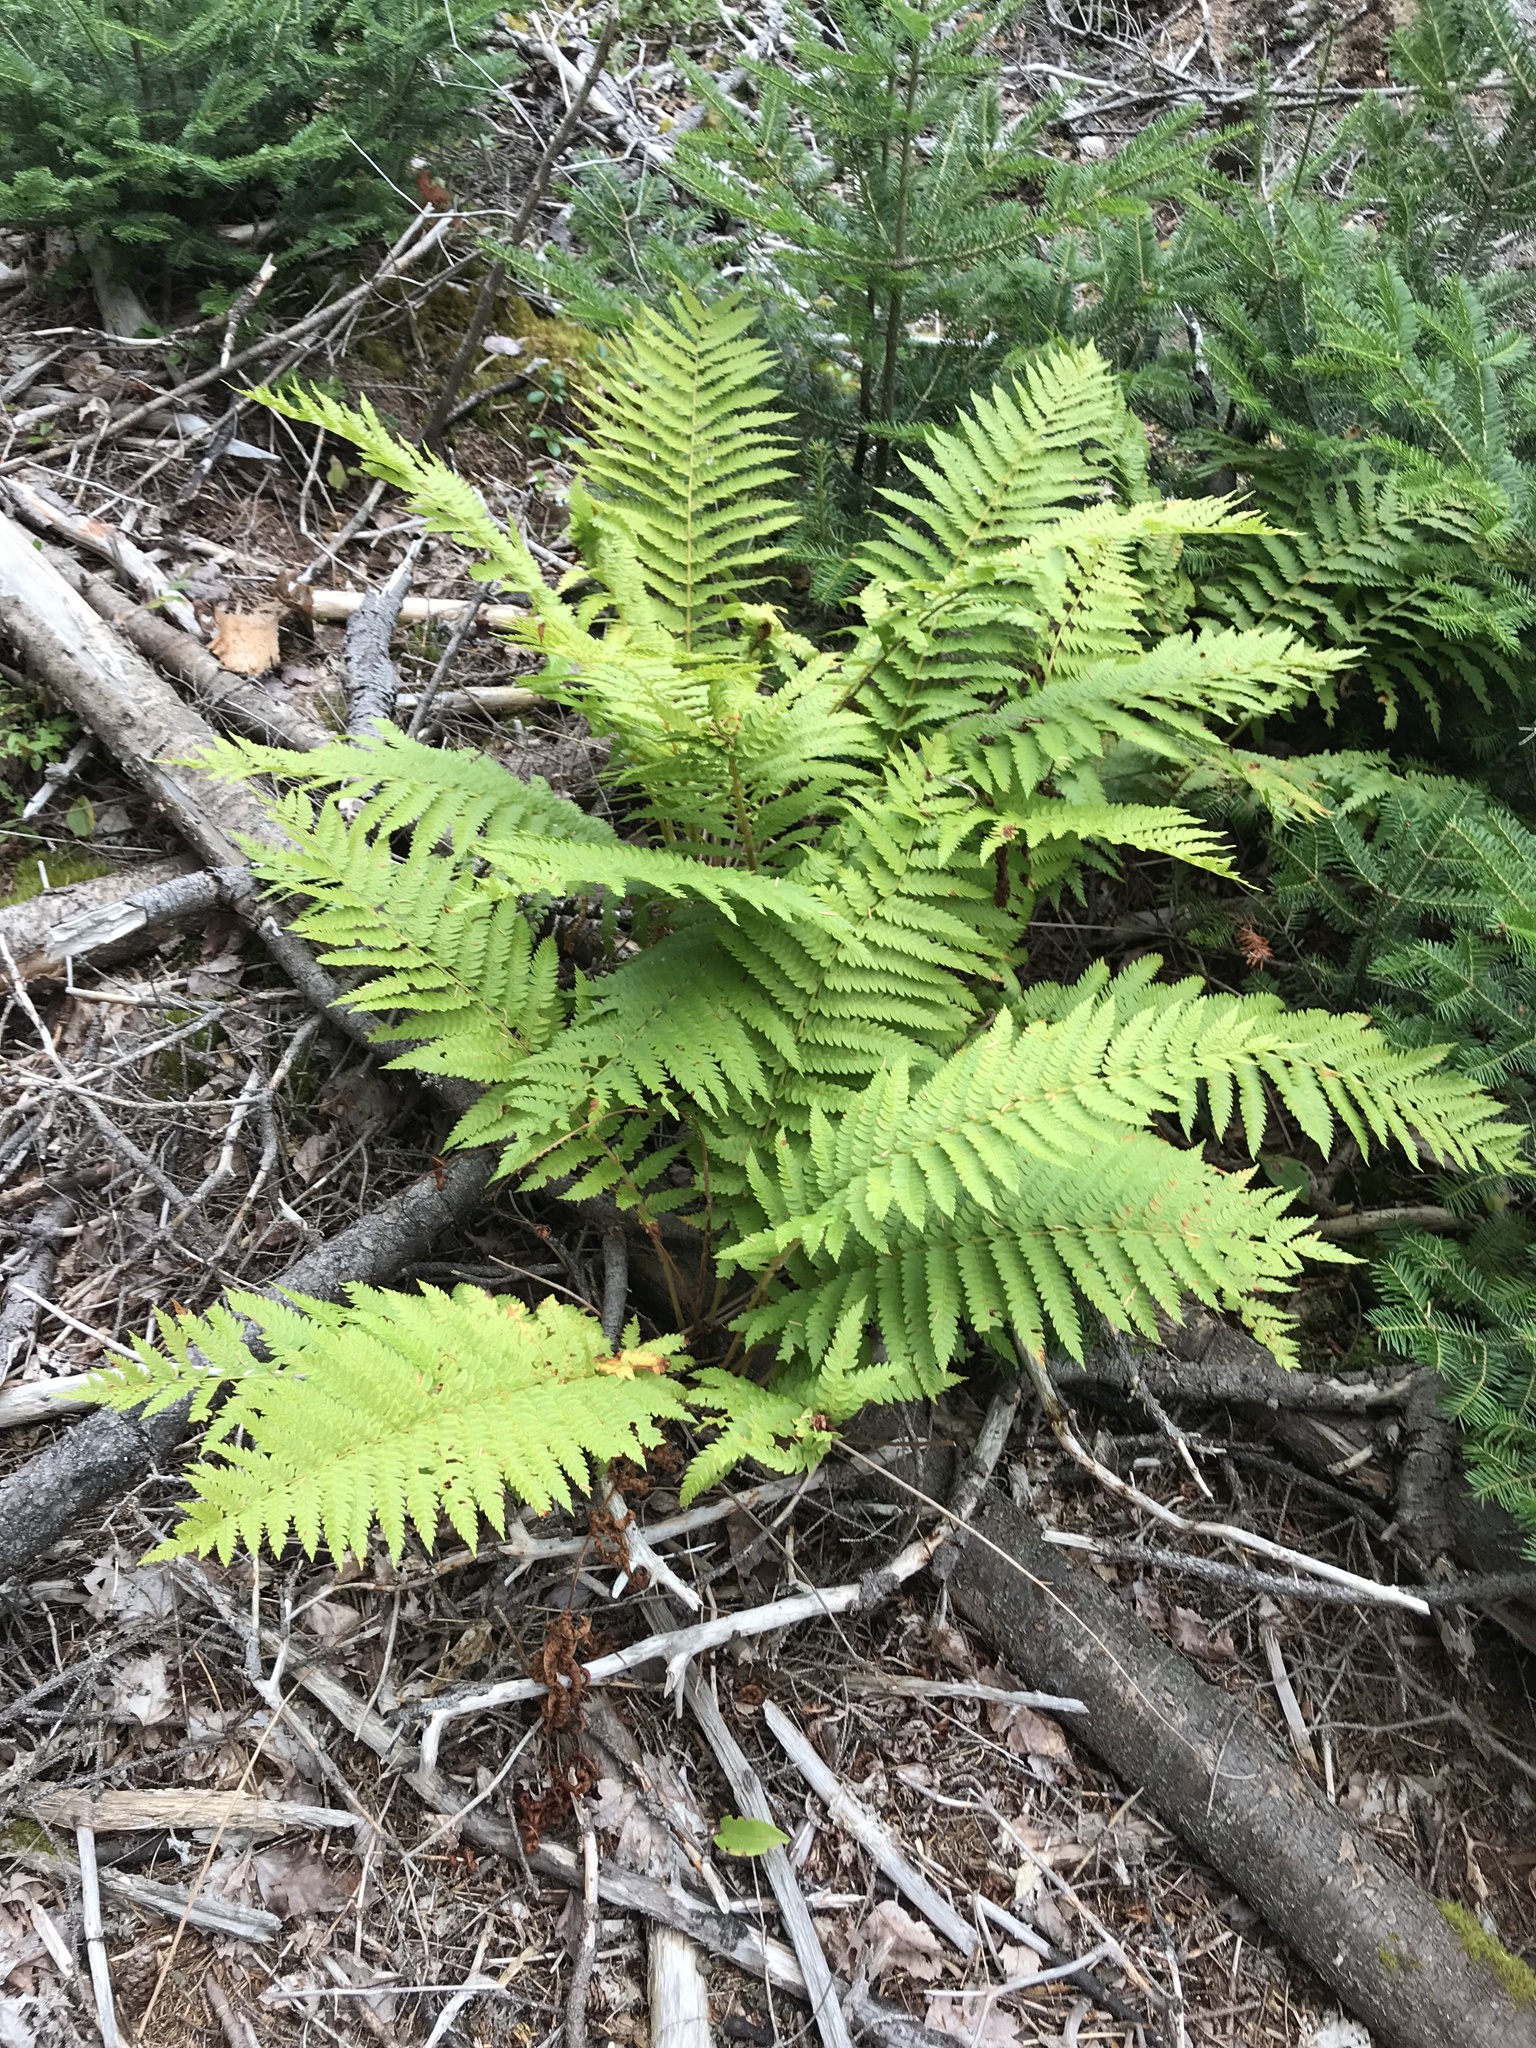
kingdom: Plantae
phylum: Tracheophyta
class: Polypodiopsida
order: Osmundales
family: Osmundaceae
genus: Osmundastrum
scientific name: Osmundastrum cinnamomeum
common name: Cinnamon fern
